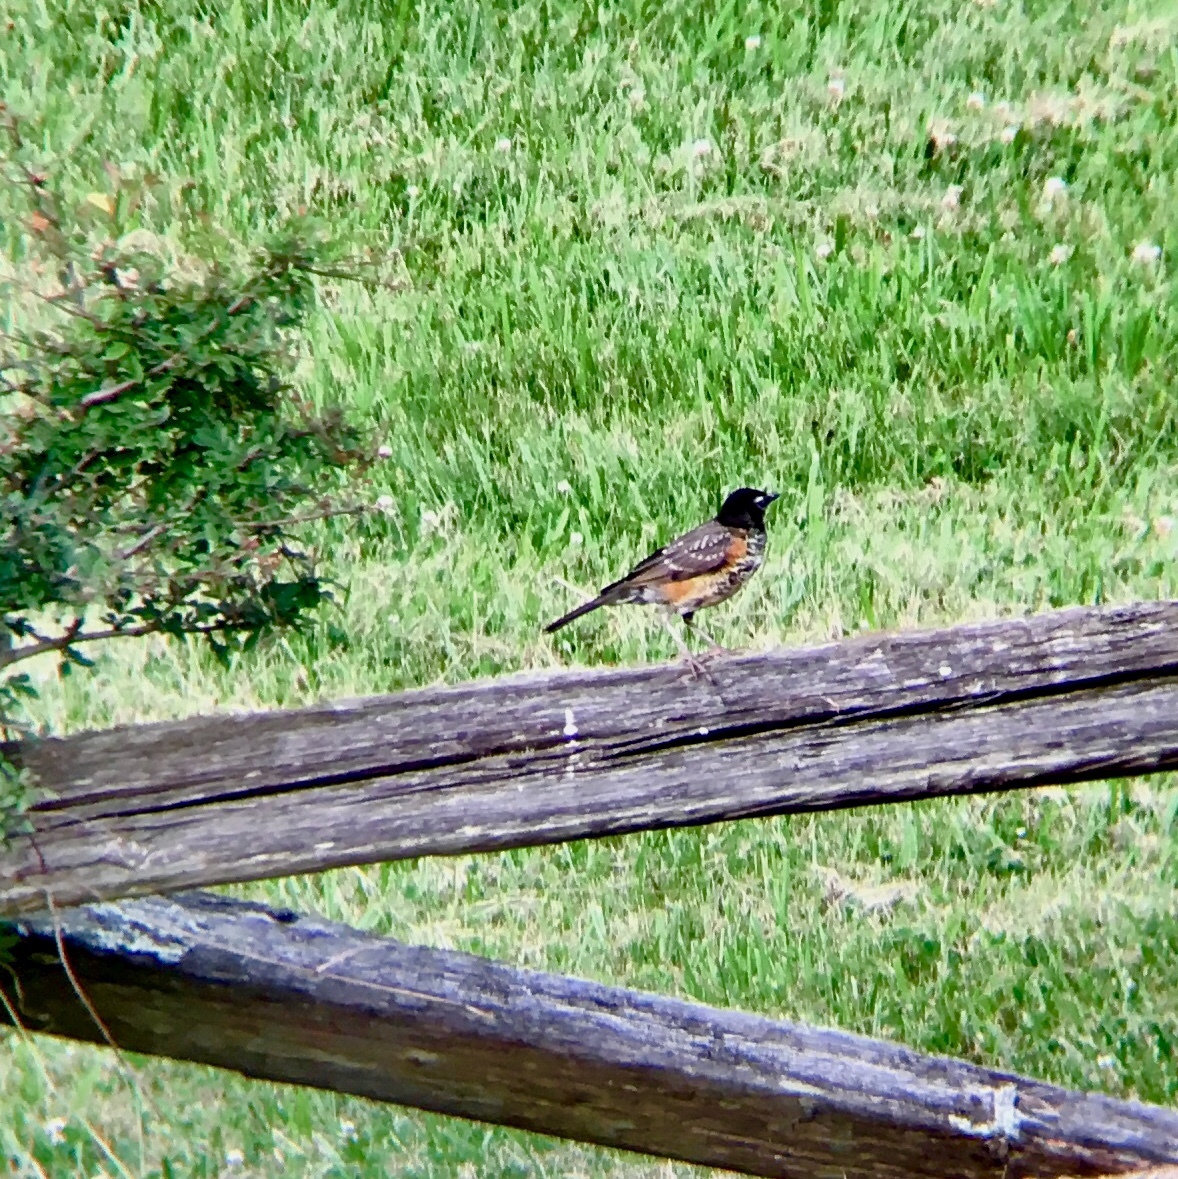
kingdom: Animalia
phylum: Chordata
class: Aves
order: Passeriformes
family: Turdidae
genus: Turdus
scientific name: Turdus migratorius
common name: American robin
